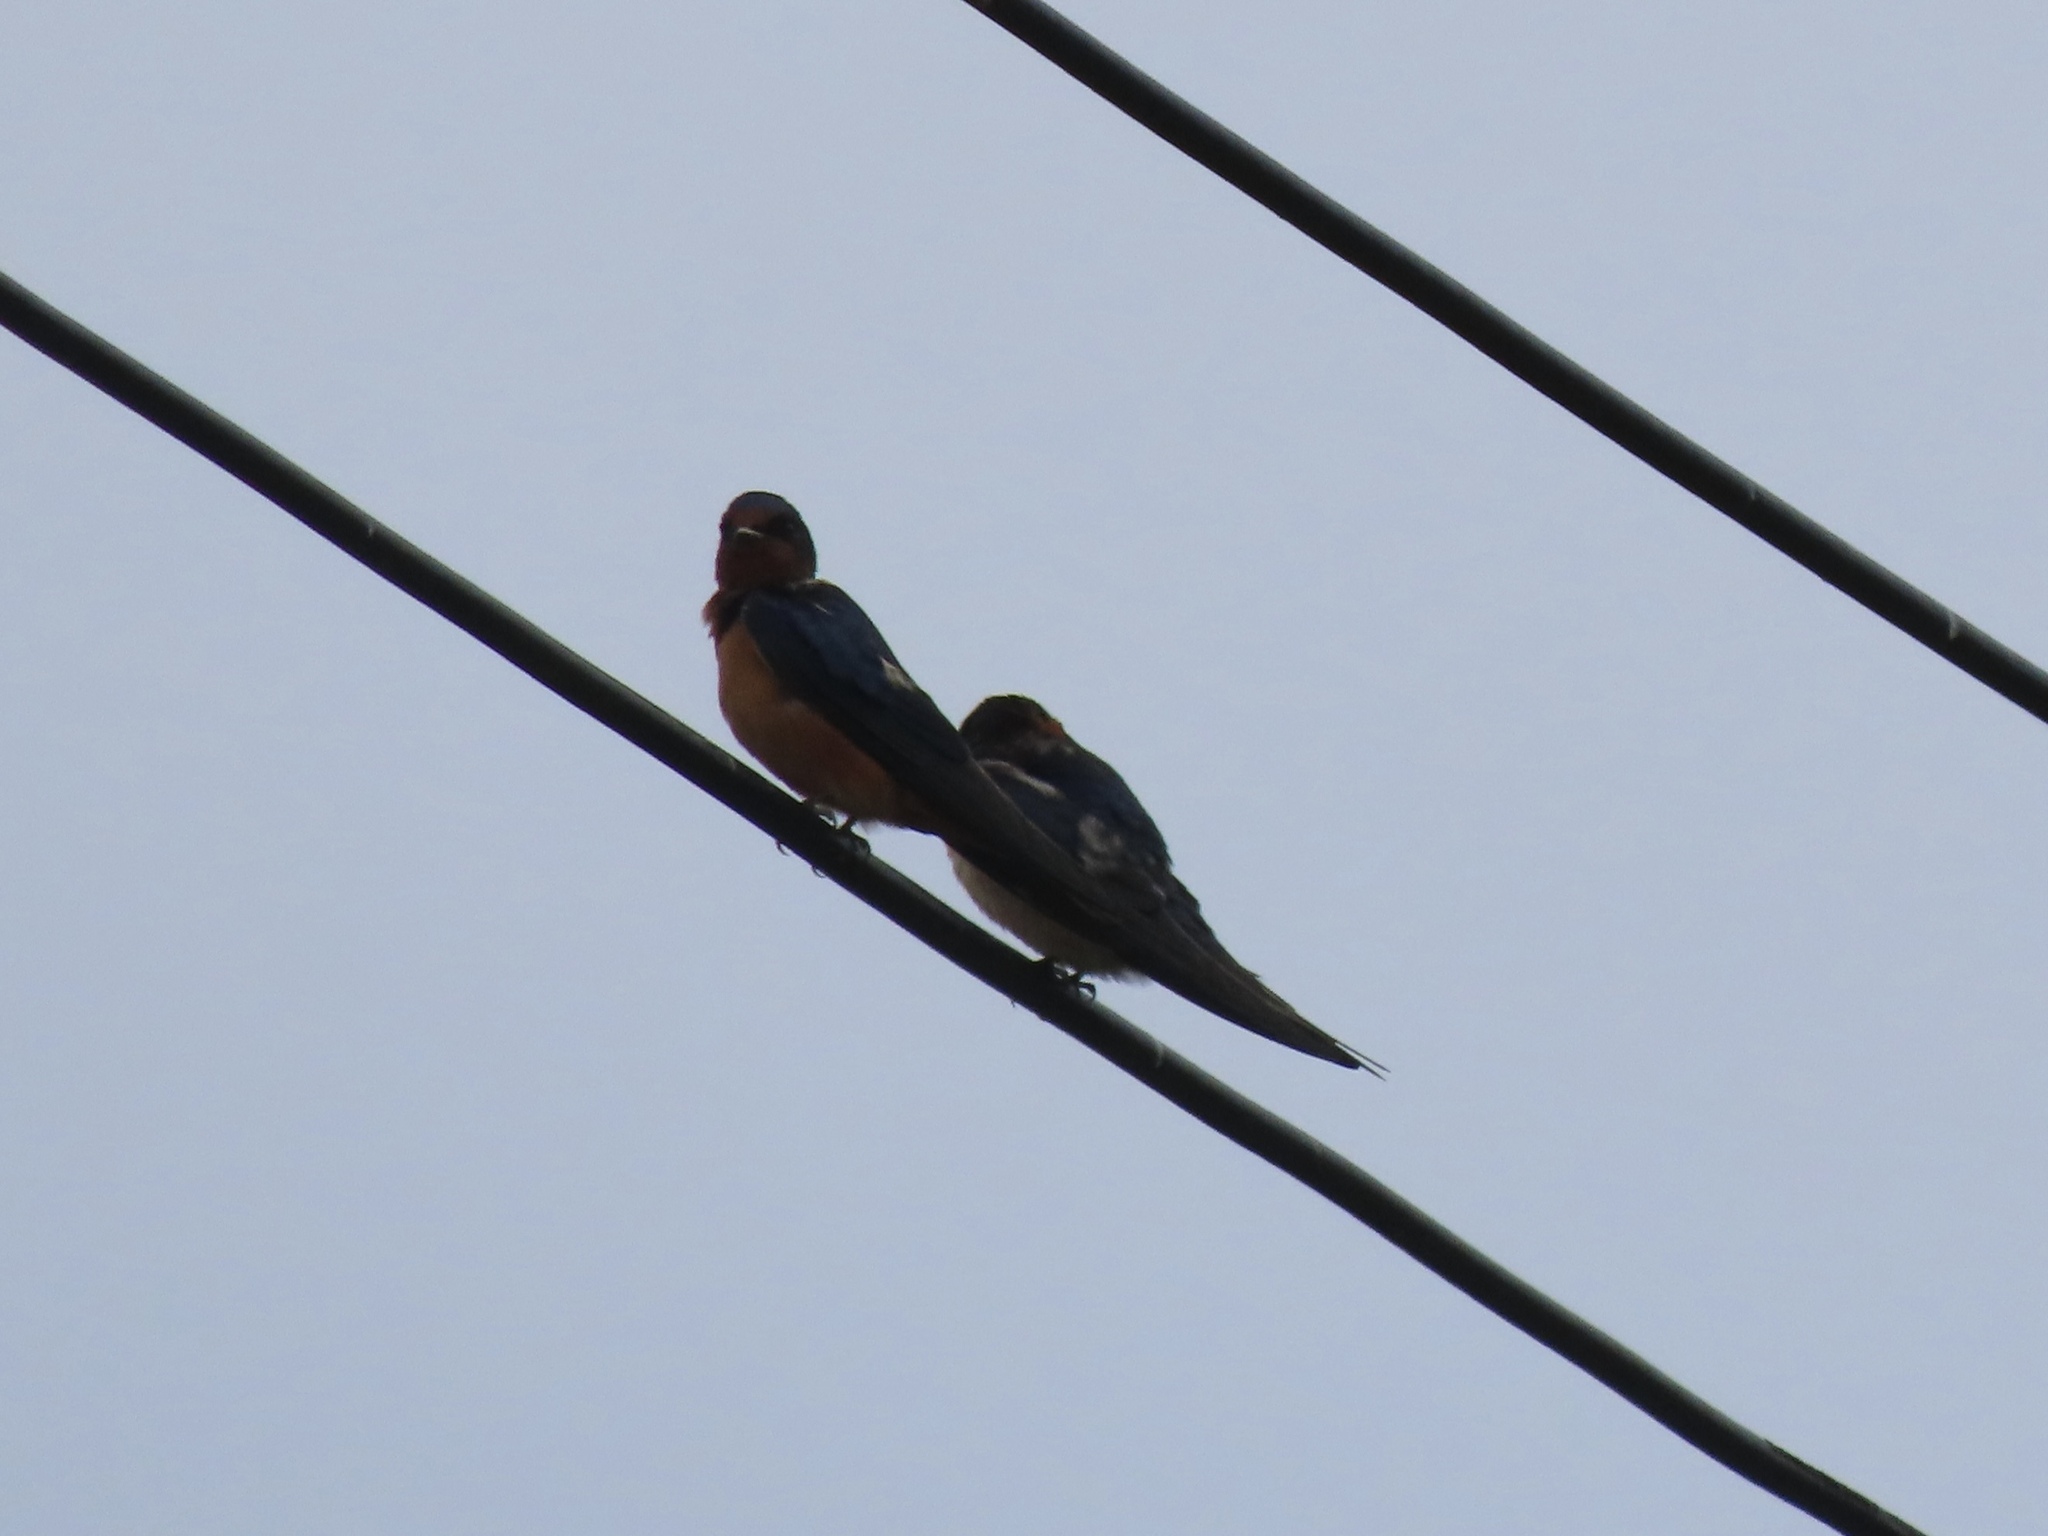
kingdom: Animalia
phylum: Chordata
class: Aves
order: Passeriformes
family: Hirundinidae
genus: Hirundo
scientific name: Hirundo rustica
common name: Barn swallow
